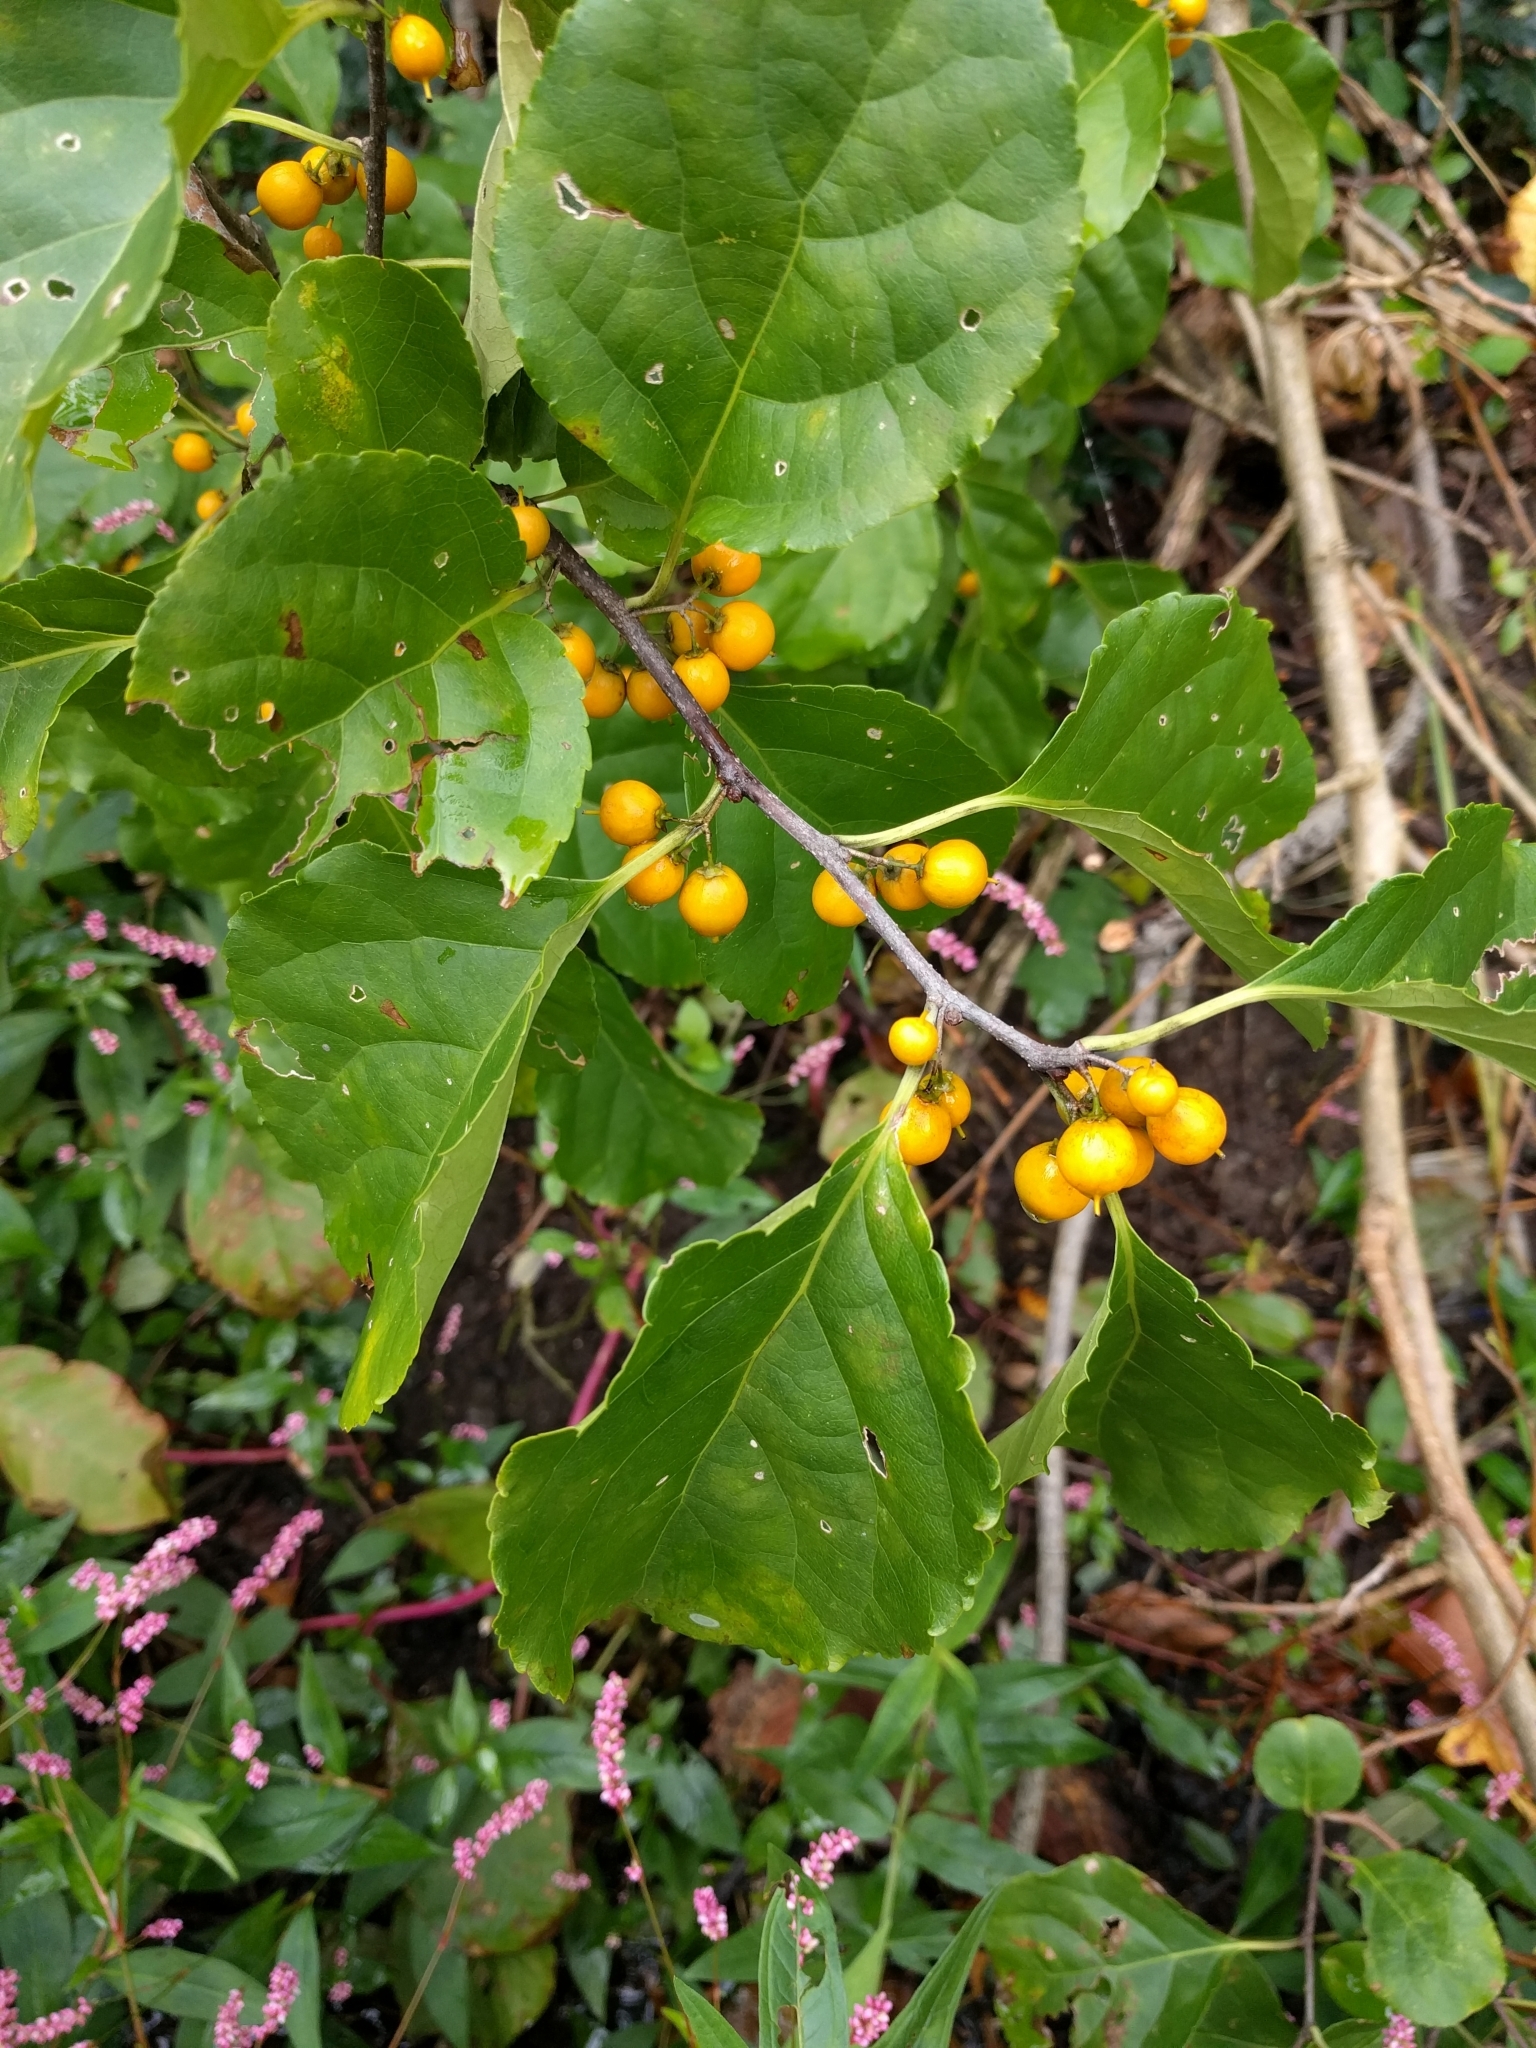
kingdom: Plantae
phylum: Tracheophyta
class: Magnoliopsida
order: Celastrales
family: Celastraceae
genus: Celastrus
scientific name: Celastrus orbiculatus
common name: Oriental bittersweet
